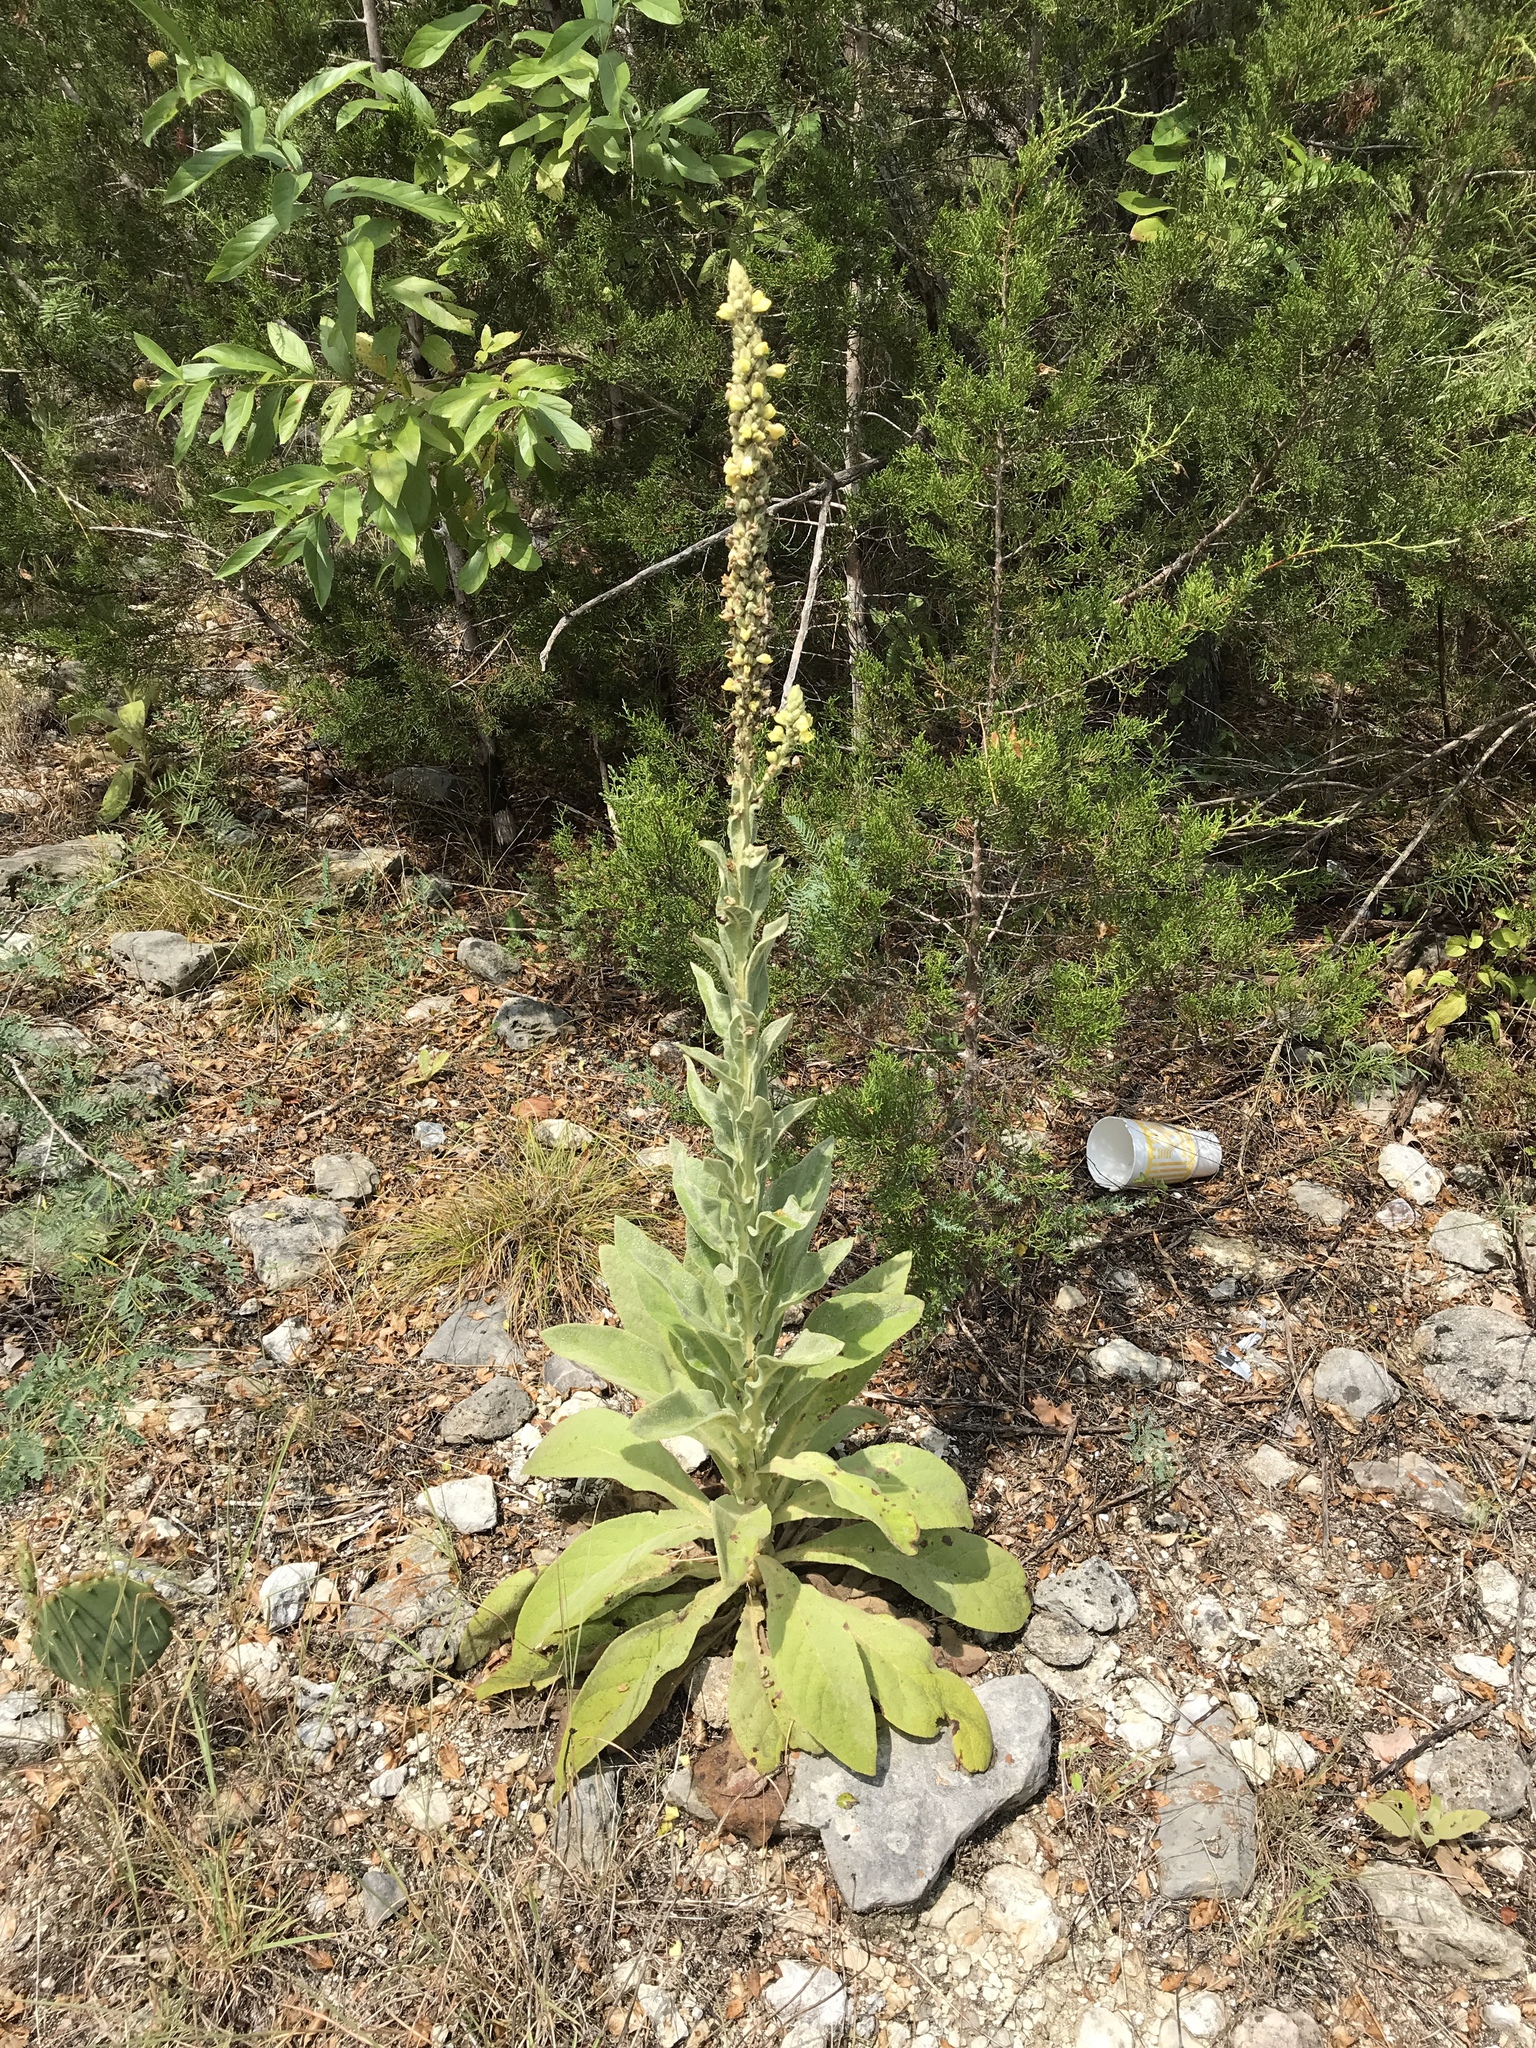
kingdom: Plantae
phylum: Tracheophyta
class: Magnoliopsida
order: Lamiales
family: Scrophulariaceae
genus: Verbascum
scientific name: Verbascum thapsus
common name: Common mullein
